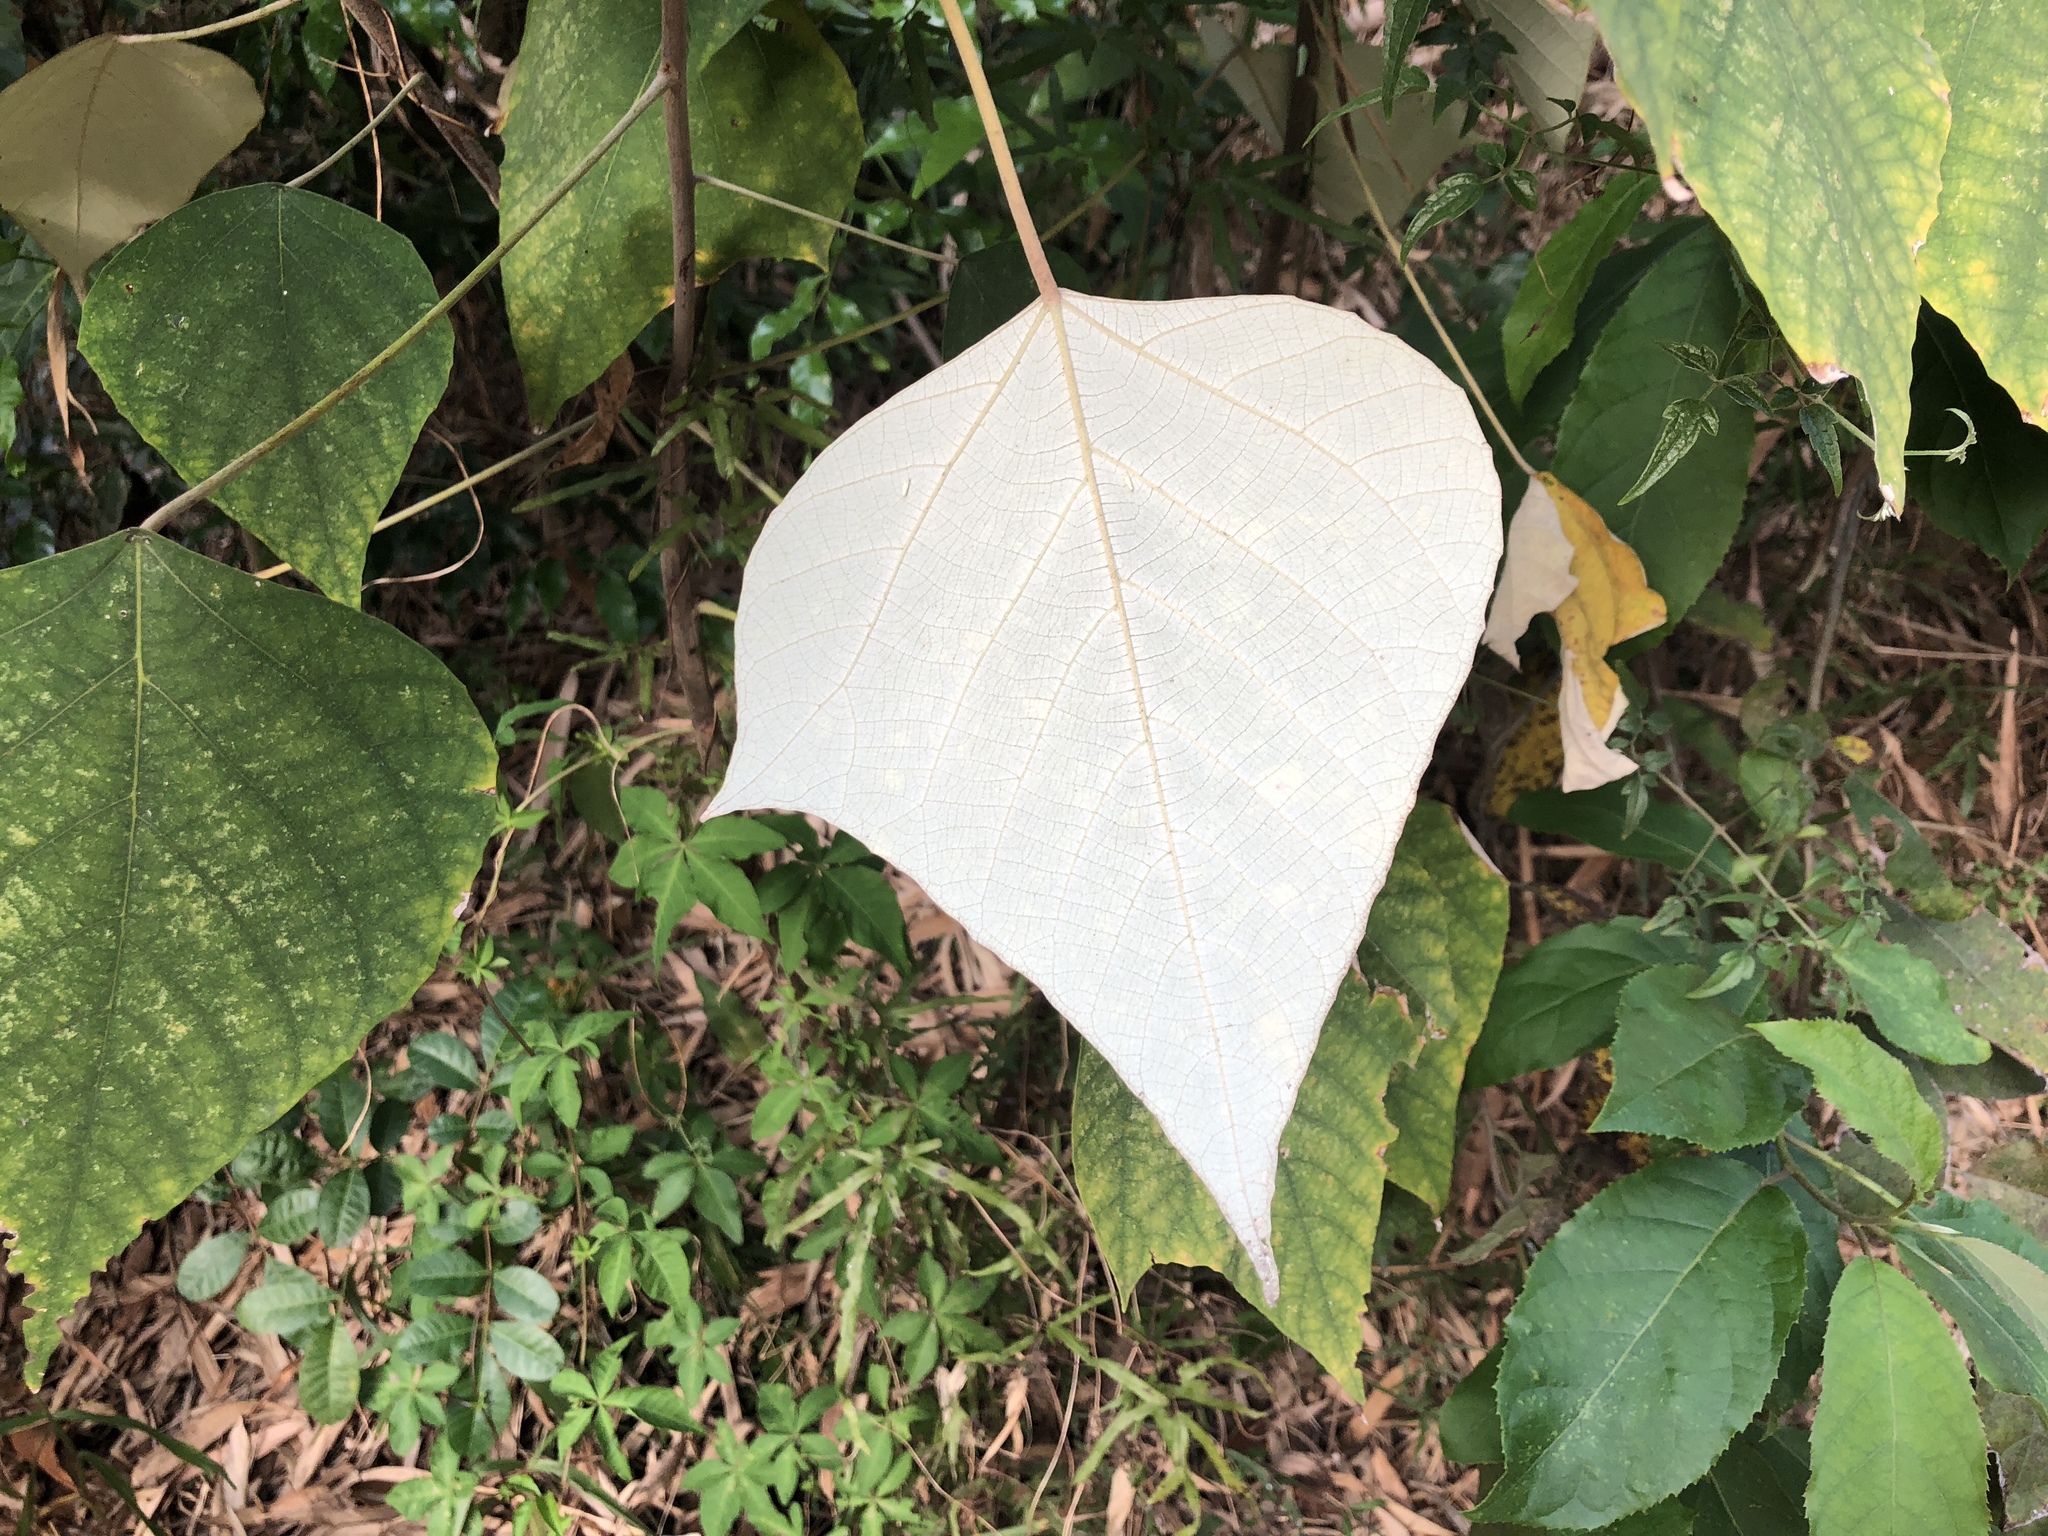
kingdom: Plantae
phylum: Tracheophyta
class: Magnoliopsida
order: Malpighiales
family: Euphorbiaceae
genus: Mallotus
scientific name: Mallotus paniculatus
